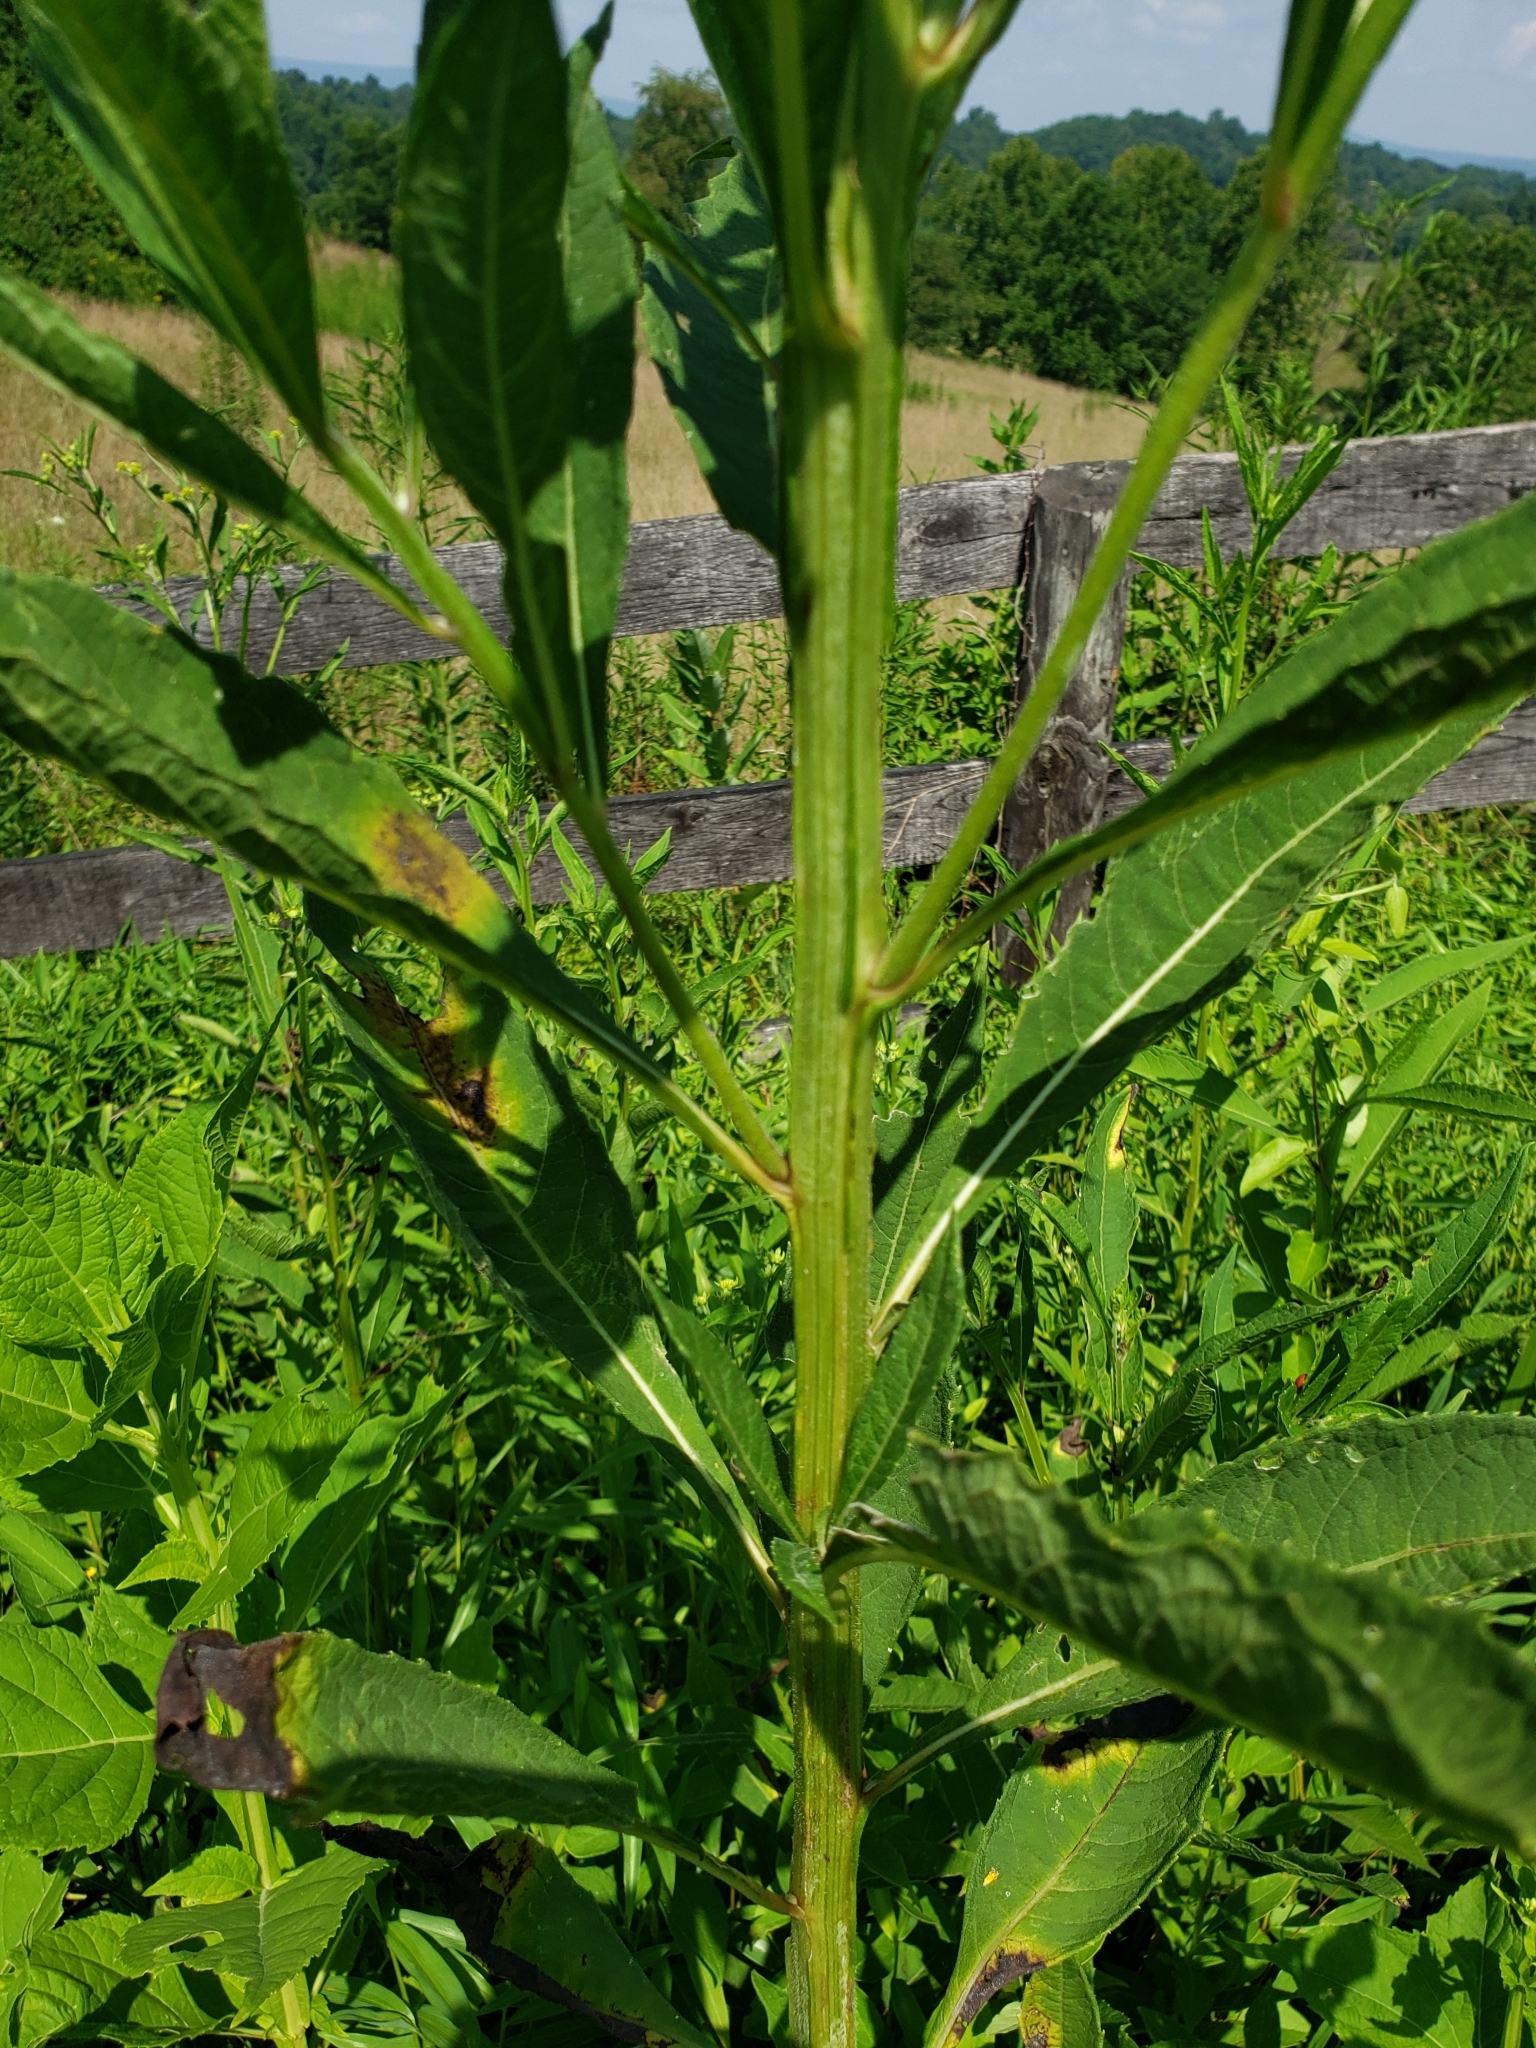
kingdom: Plantae
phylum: Tracheophyta
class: Magnoliopsida
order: Asterales
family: Asteraceae
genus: Verbesina
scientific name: Verbesina alternifolia
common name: Wingstem
